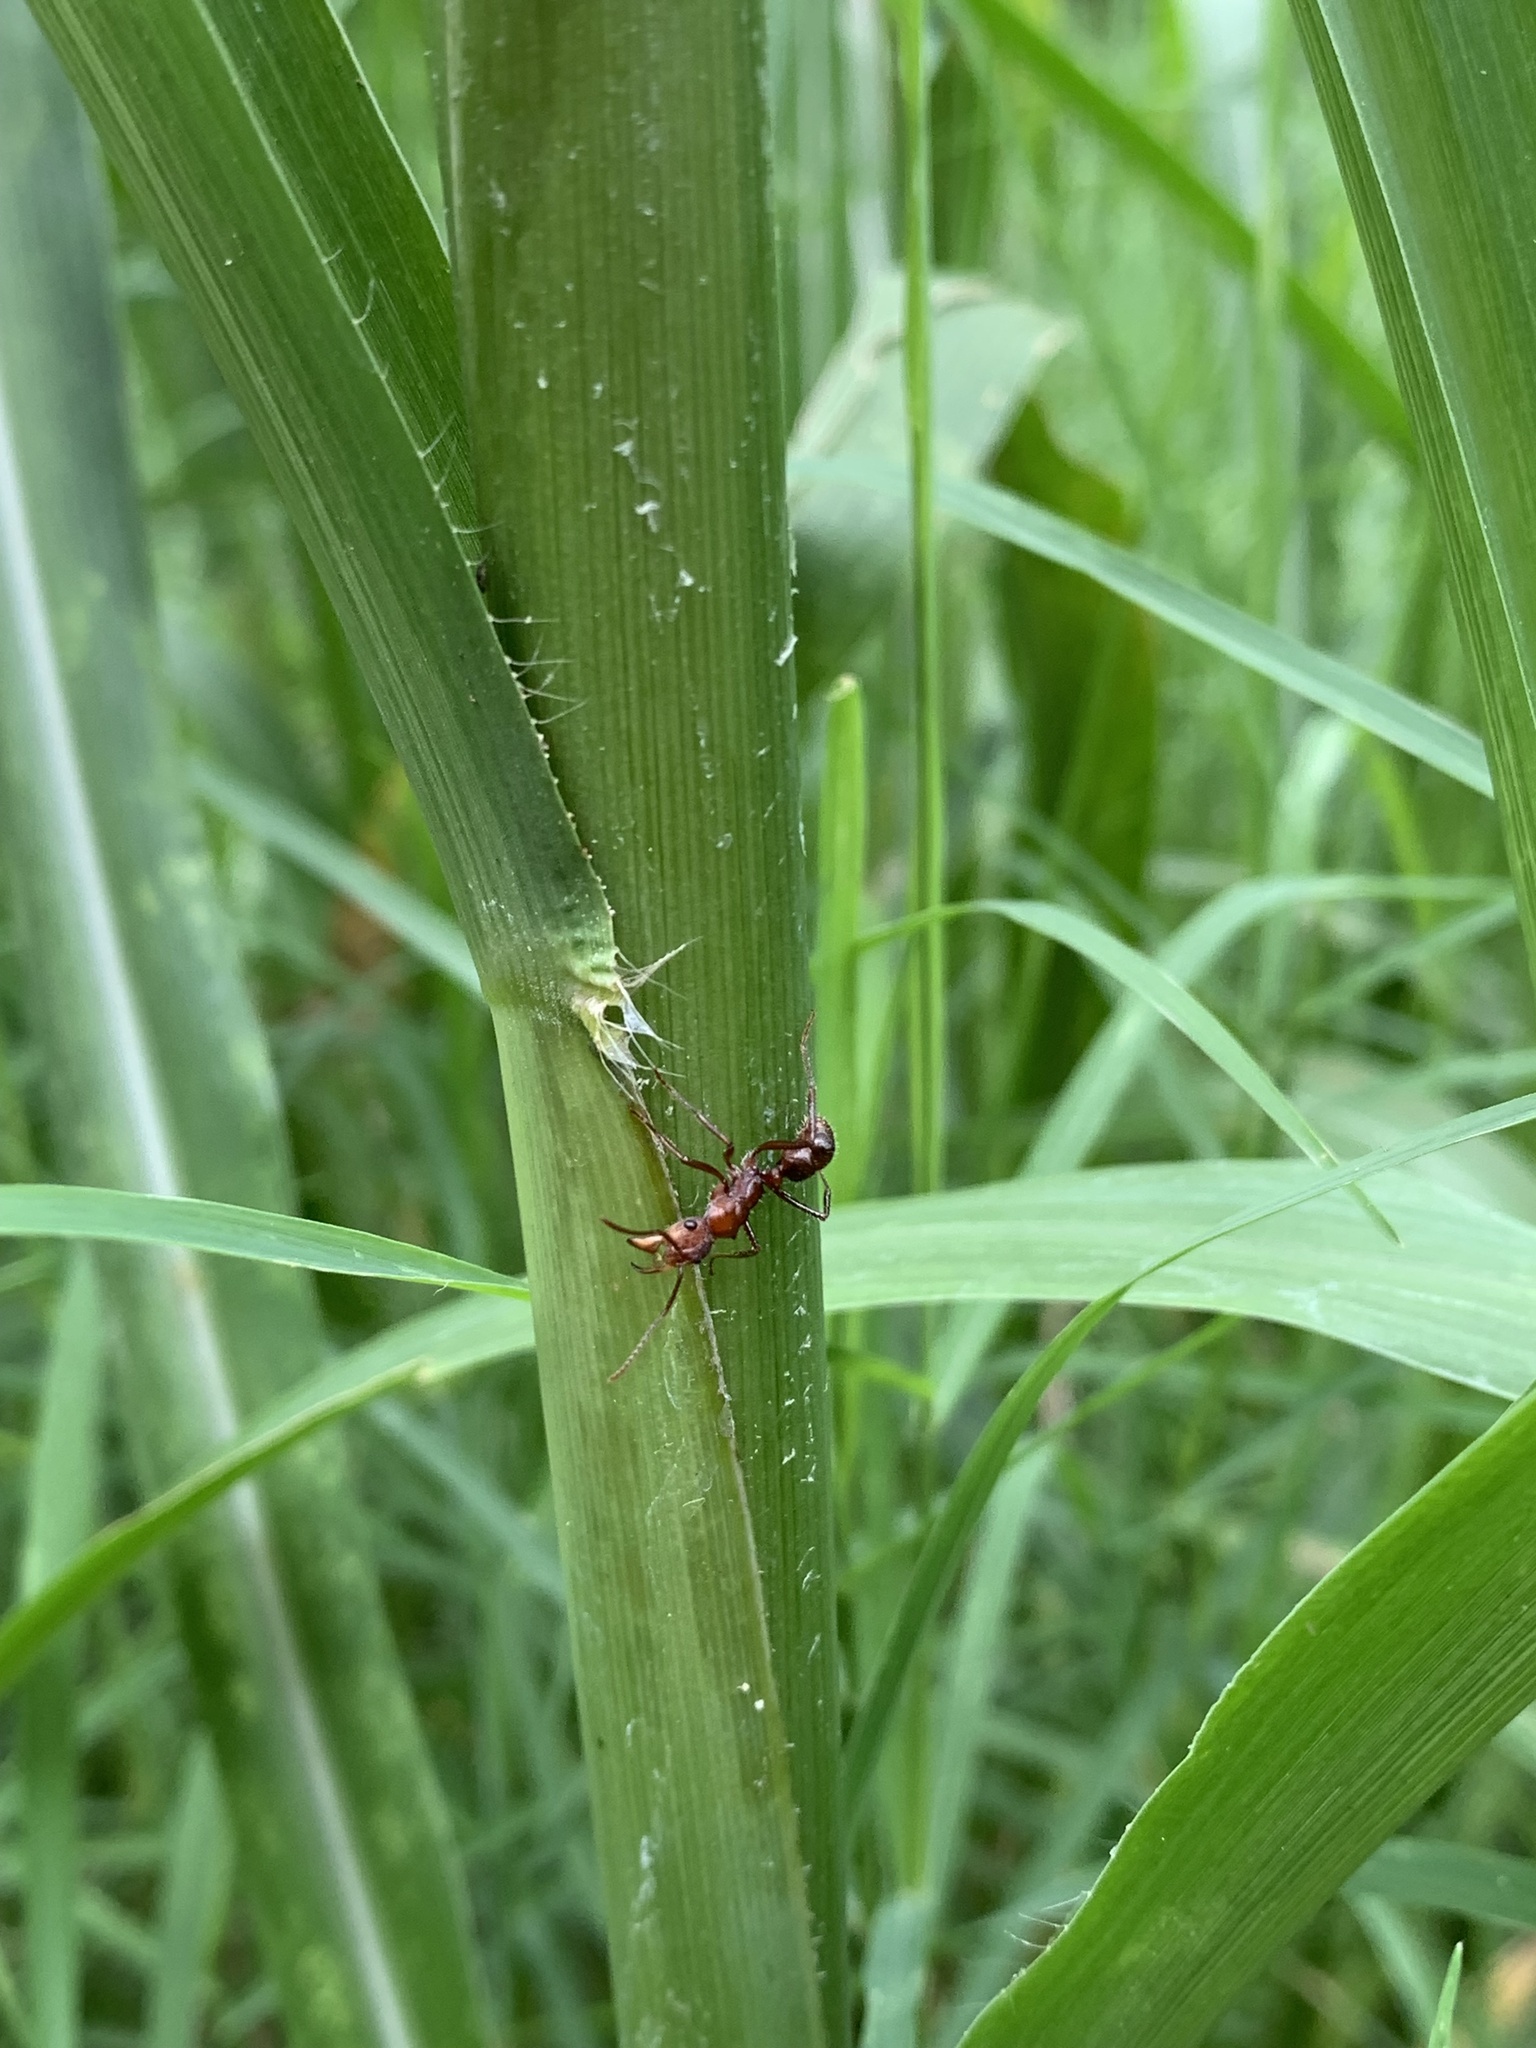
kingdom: Animalia
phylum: Arthropoda
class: Insecta
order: Hymenoptera
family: Formicidae
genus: Ectatomma
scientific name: Ectatomma tuberculatum
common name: Ant
